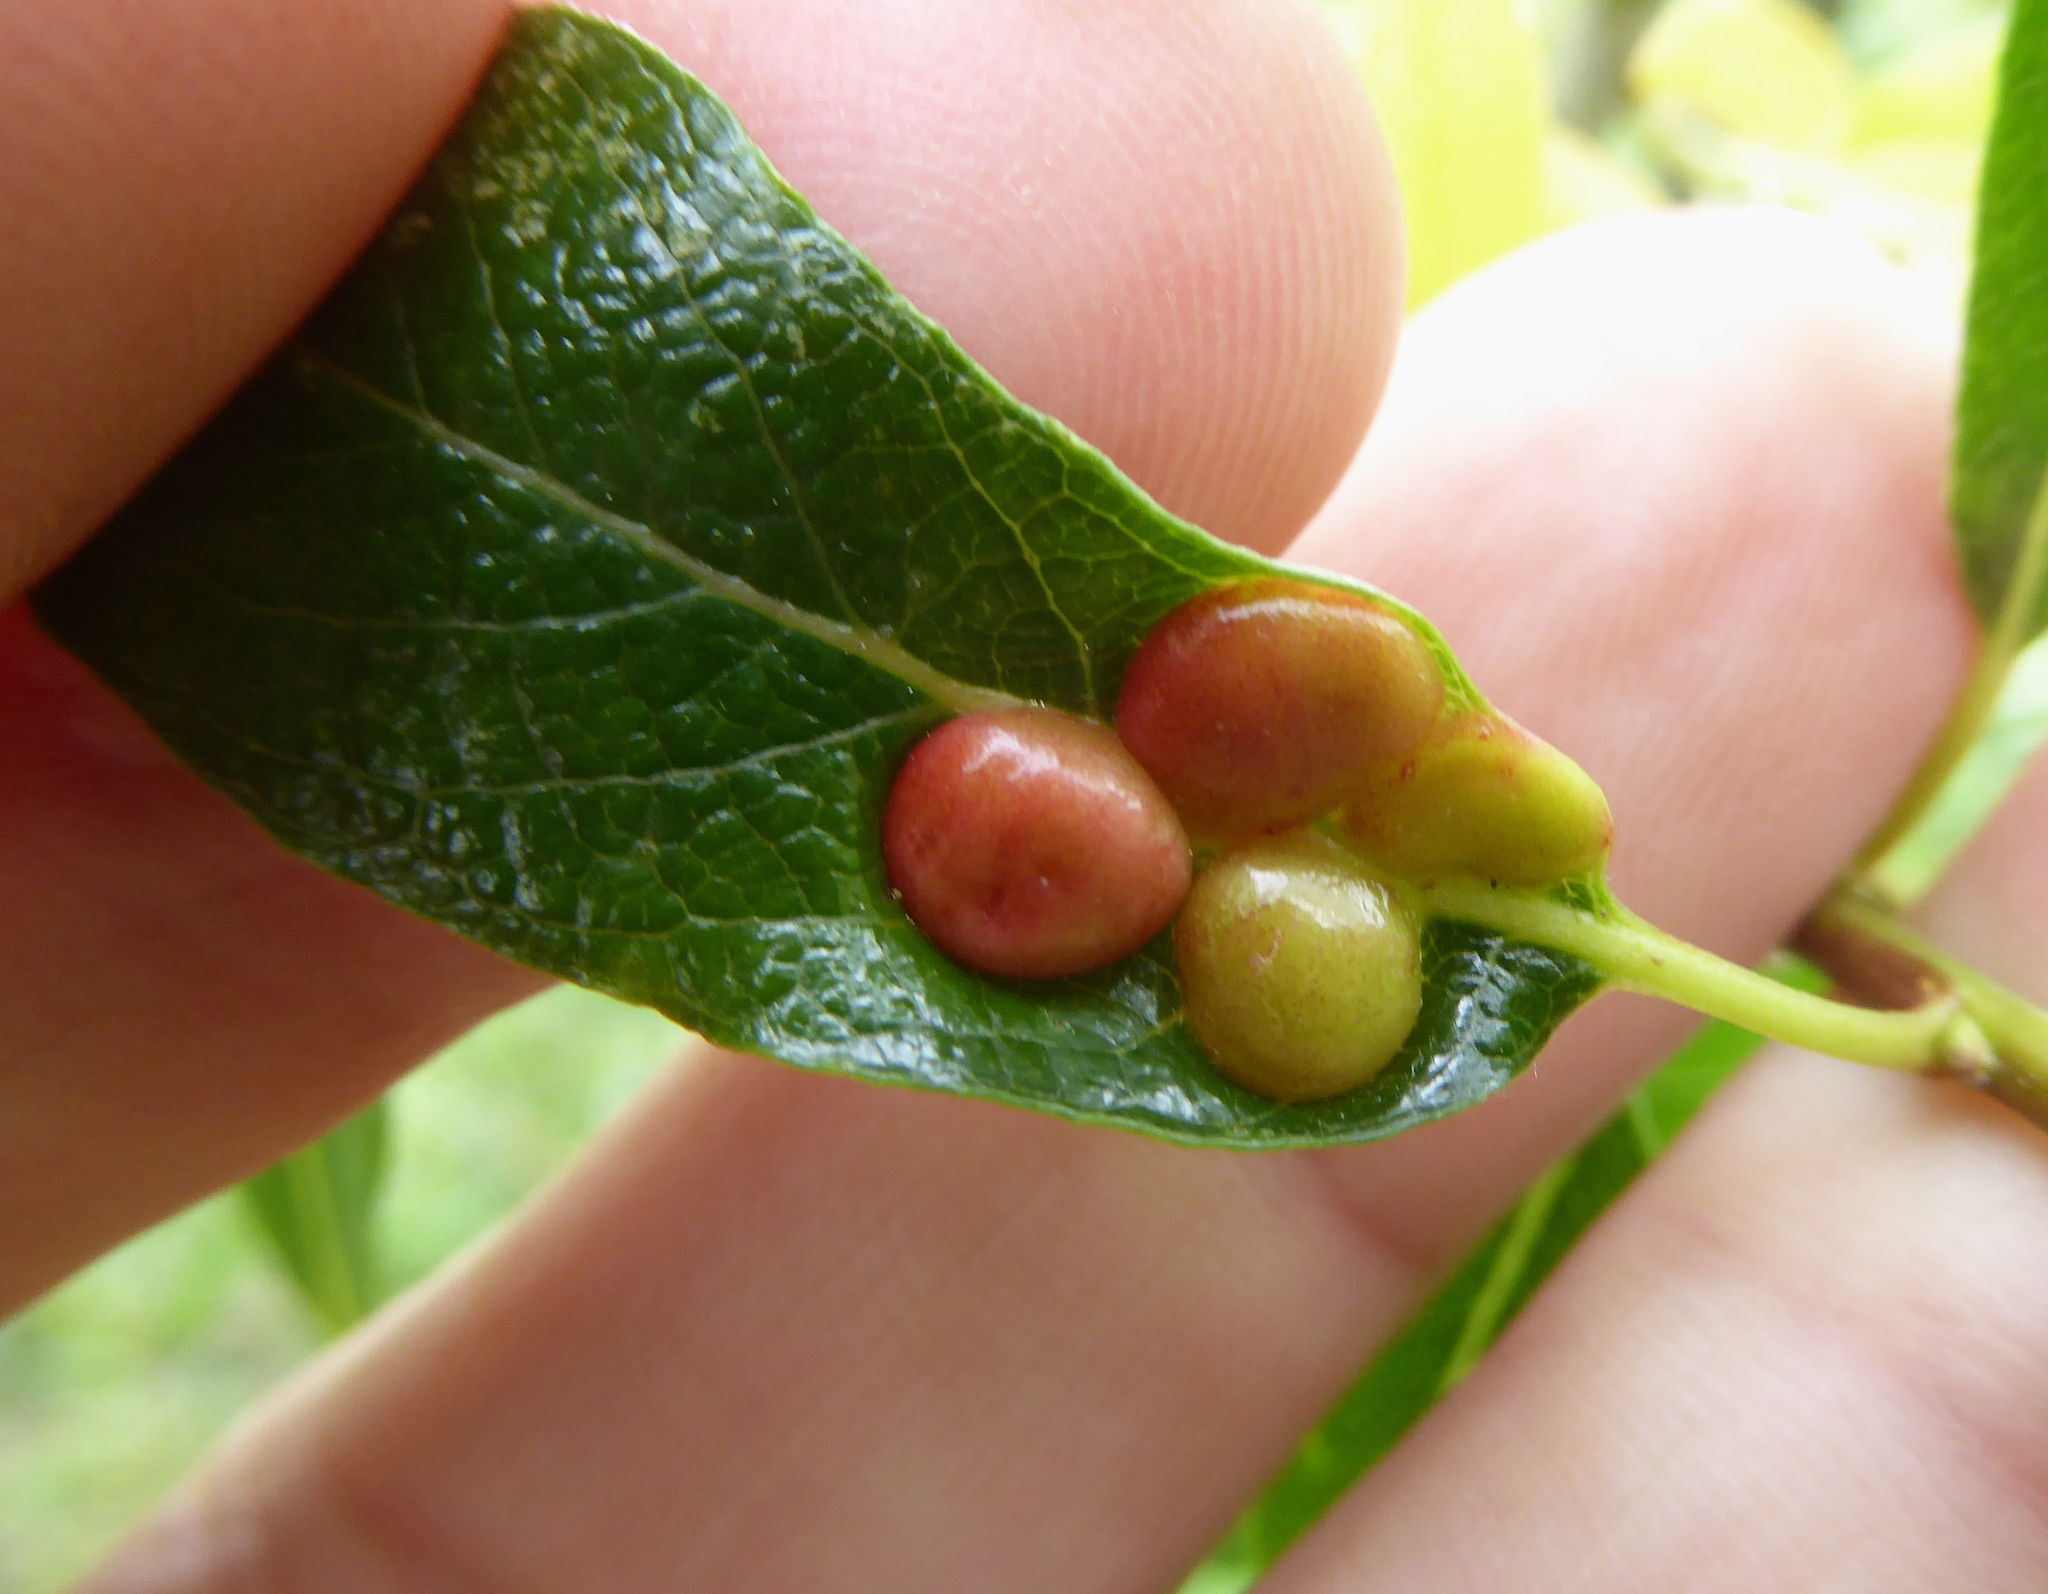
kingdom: Animalia
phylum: Arthropoda
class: Insecta
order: Hymenoptera
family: Tenthredinidae
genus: Euura
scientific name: Euura
